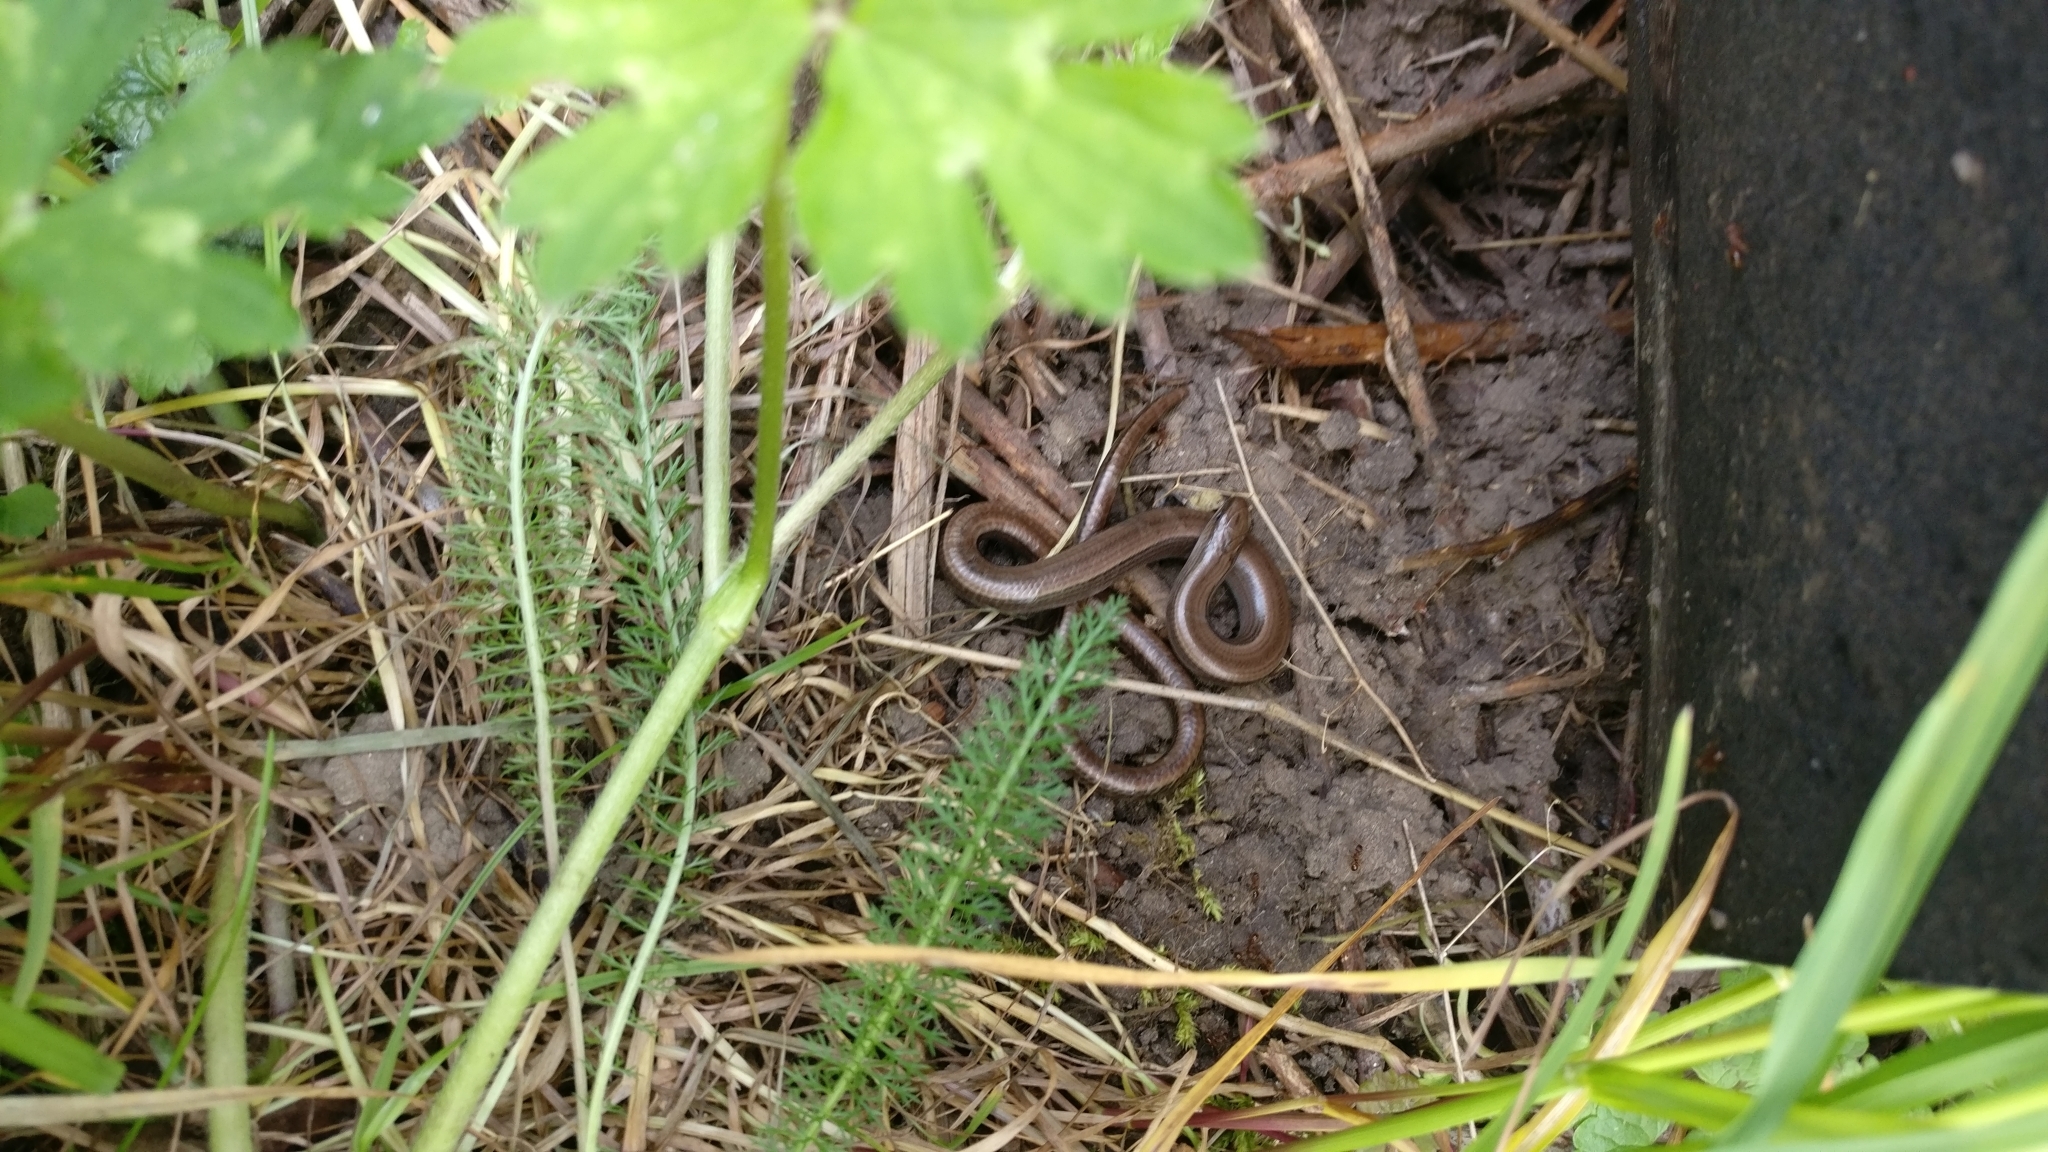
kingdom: Animalia
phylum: Chordata
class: Squamata
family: Anguidae
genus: Anguis
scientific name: Anguis fragilis
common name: Slow worm
